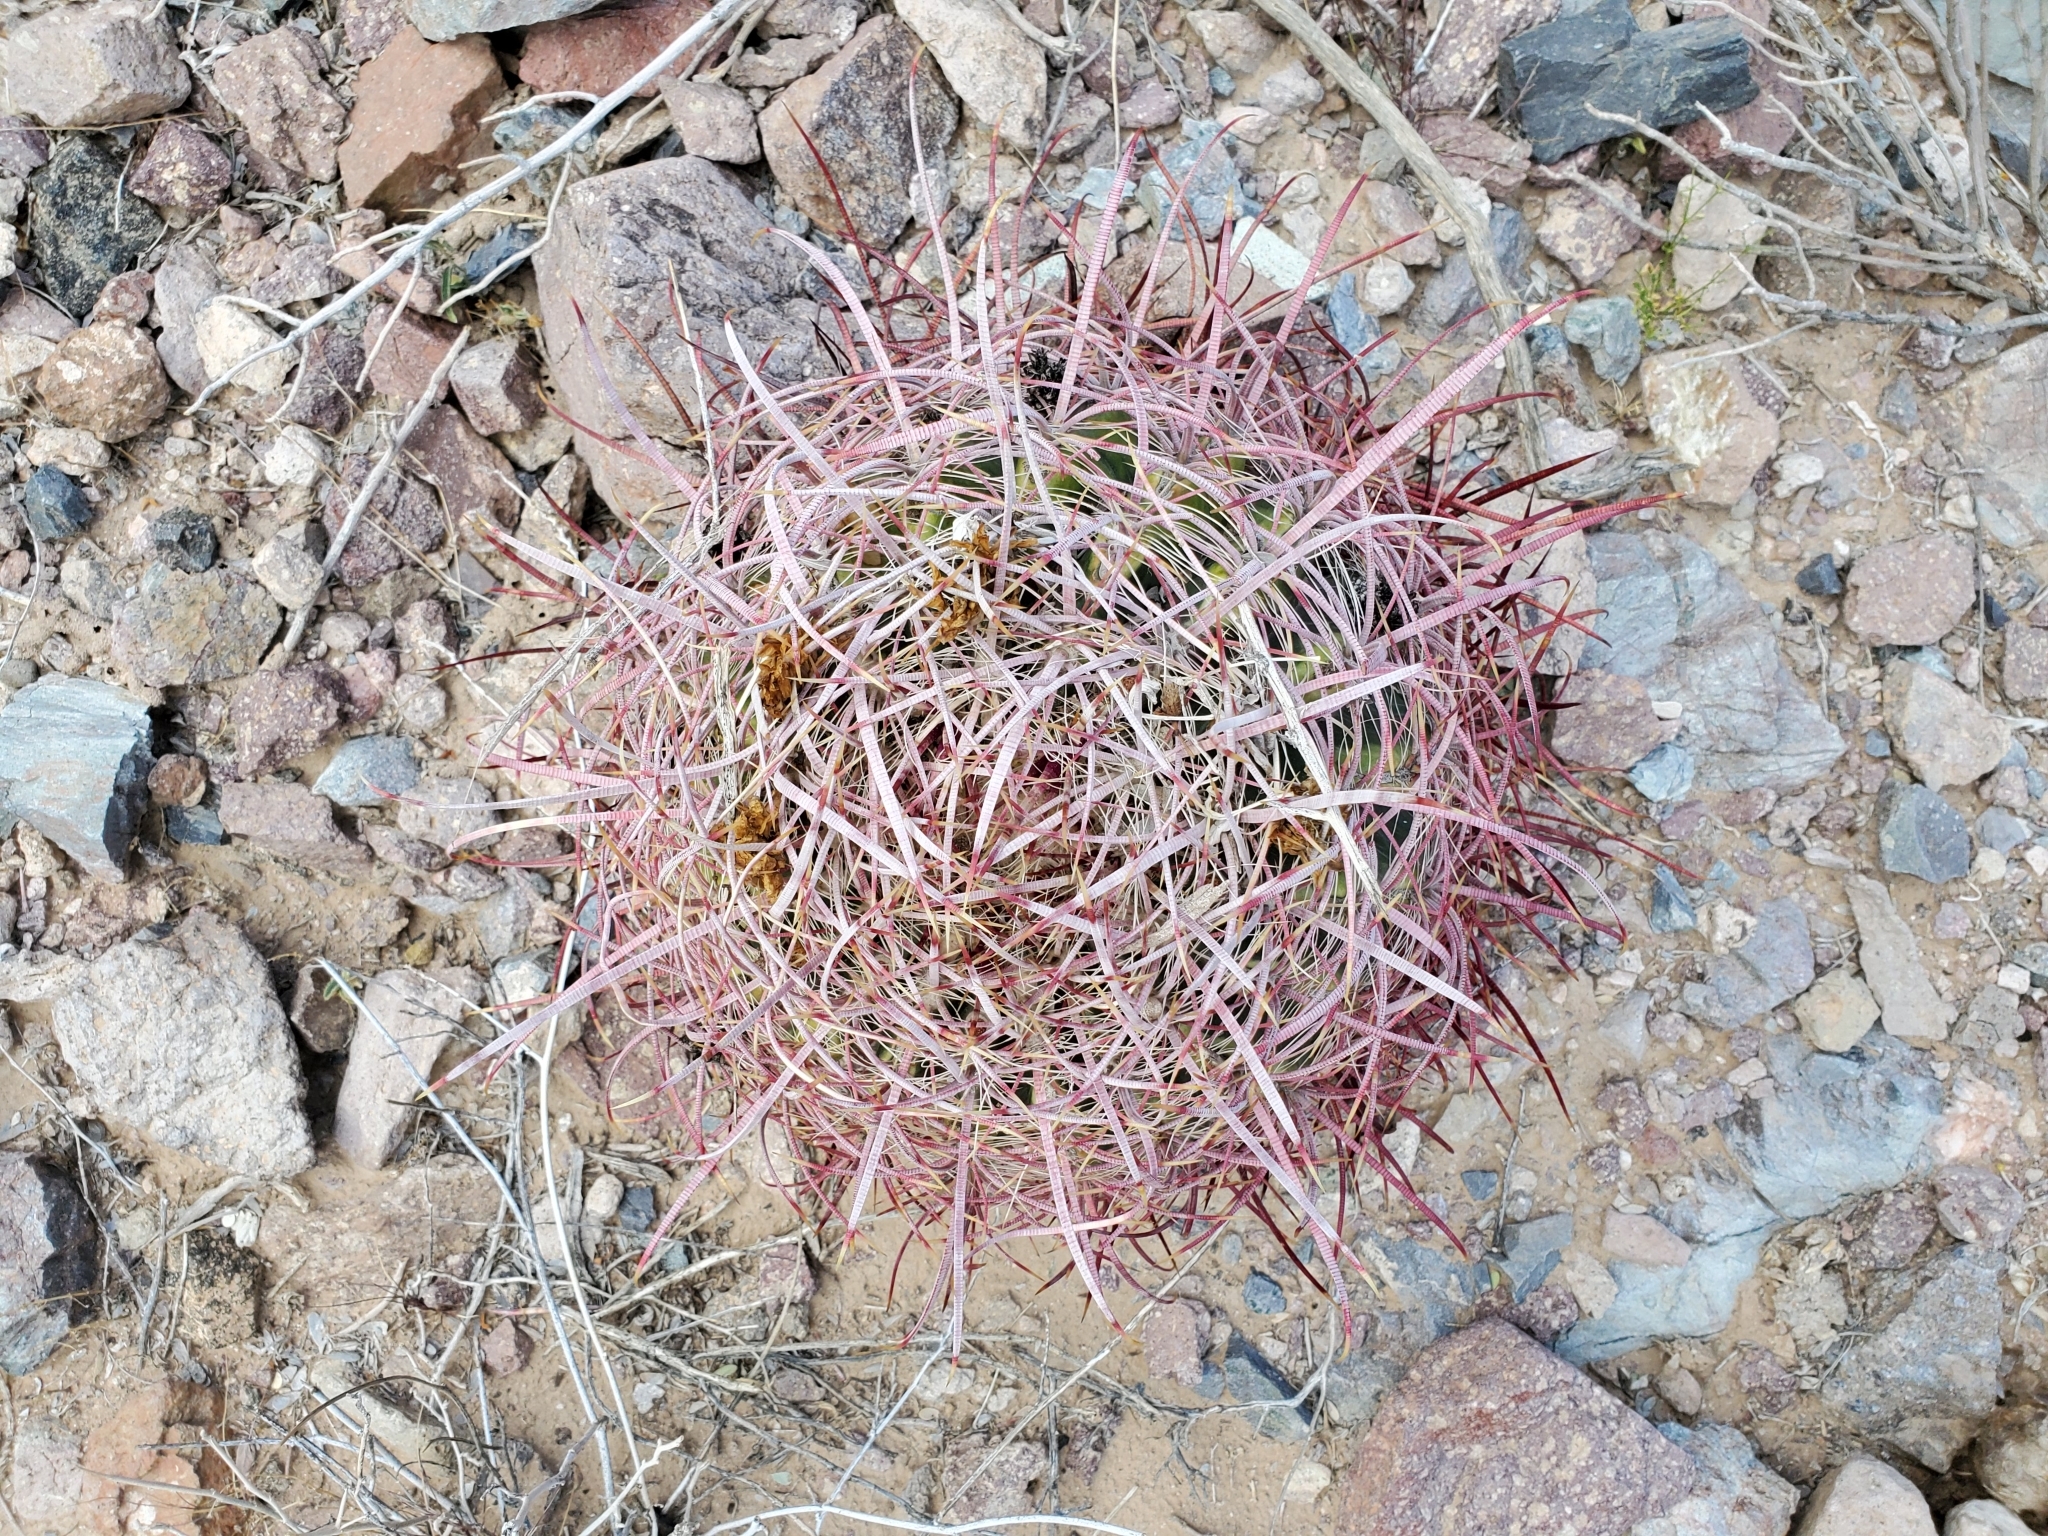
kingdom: Plantae
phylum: Tracheophyta
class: Magnoliopsida
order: Caryophyllales
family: Cactaceae
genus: Ferocactus
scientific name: Ferocactus cylindraceus
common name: California barrel cactus
